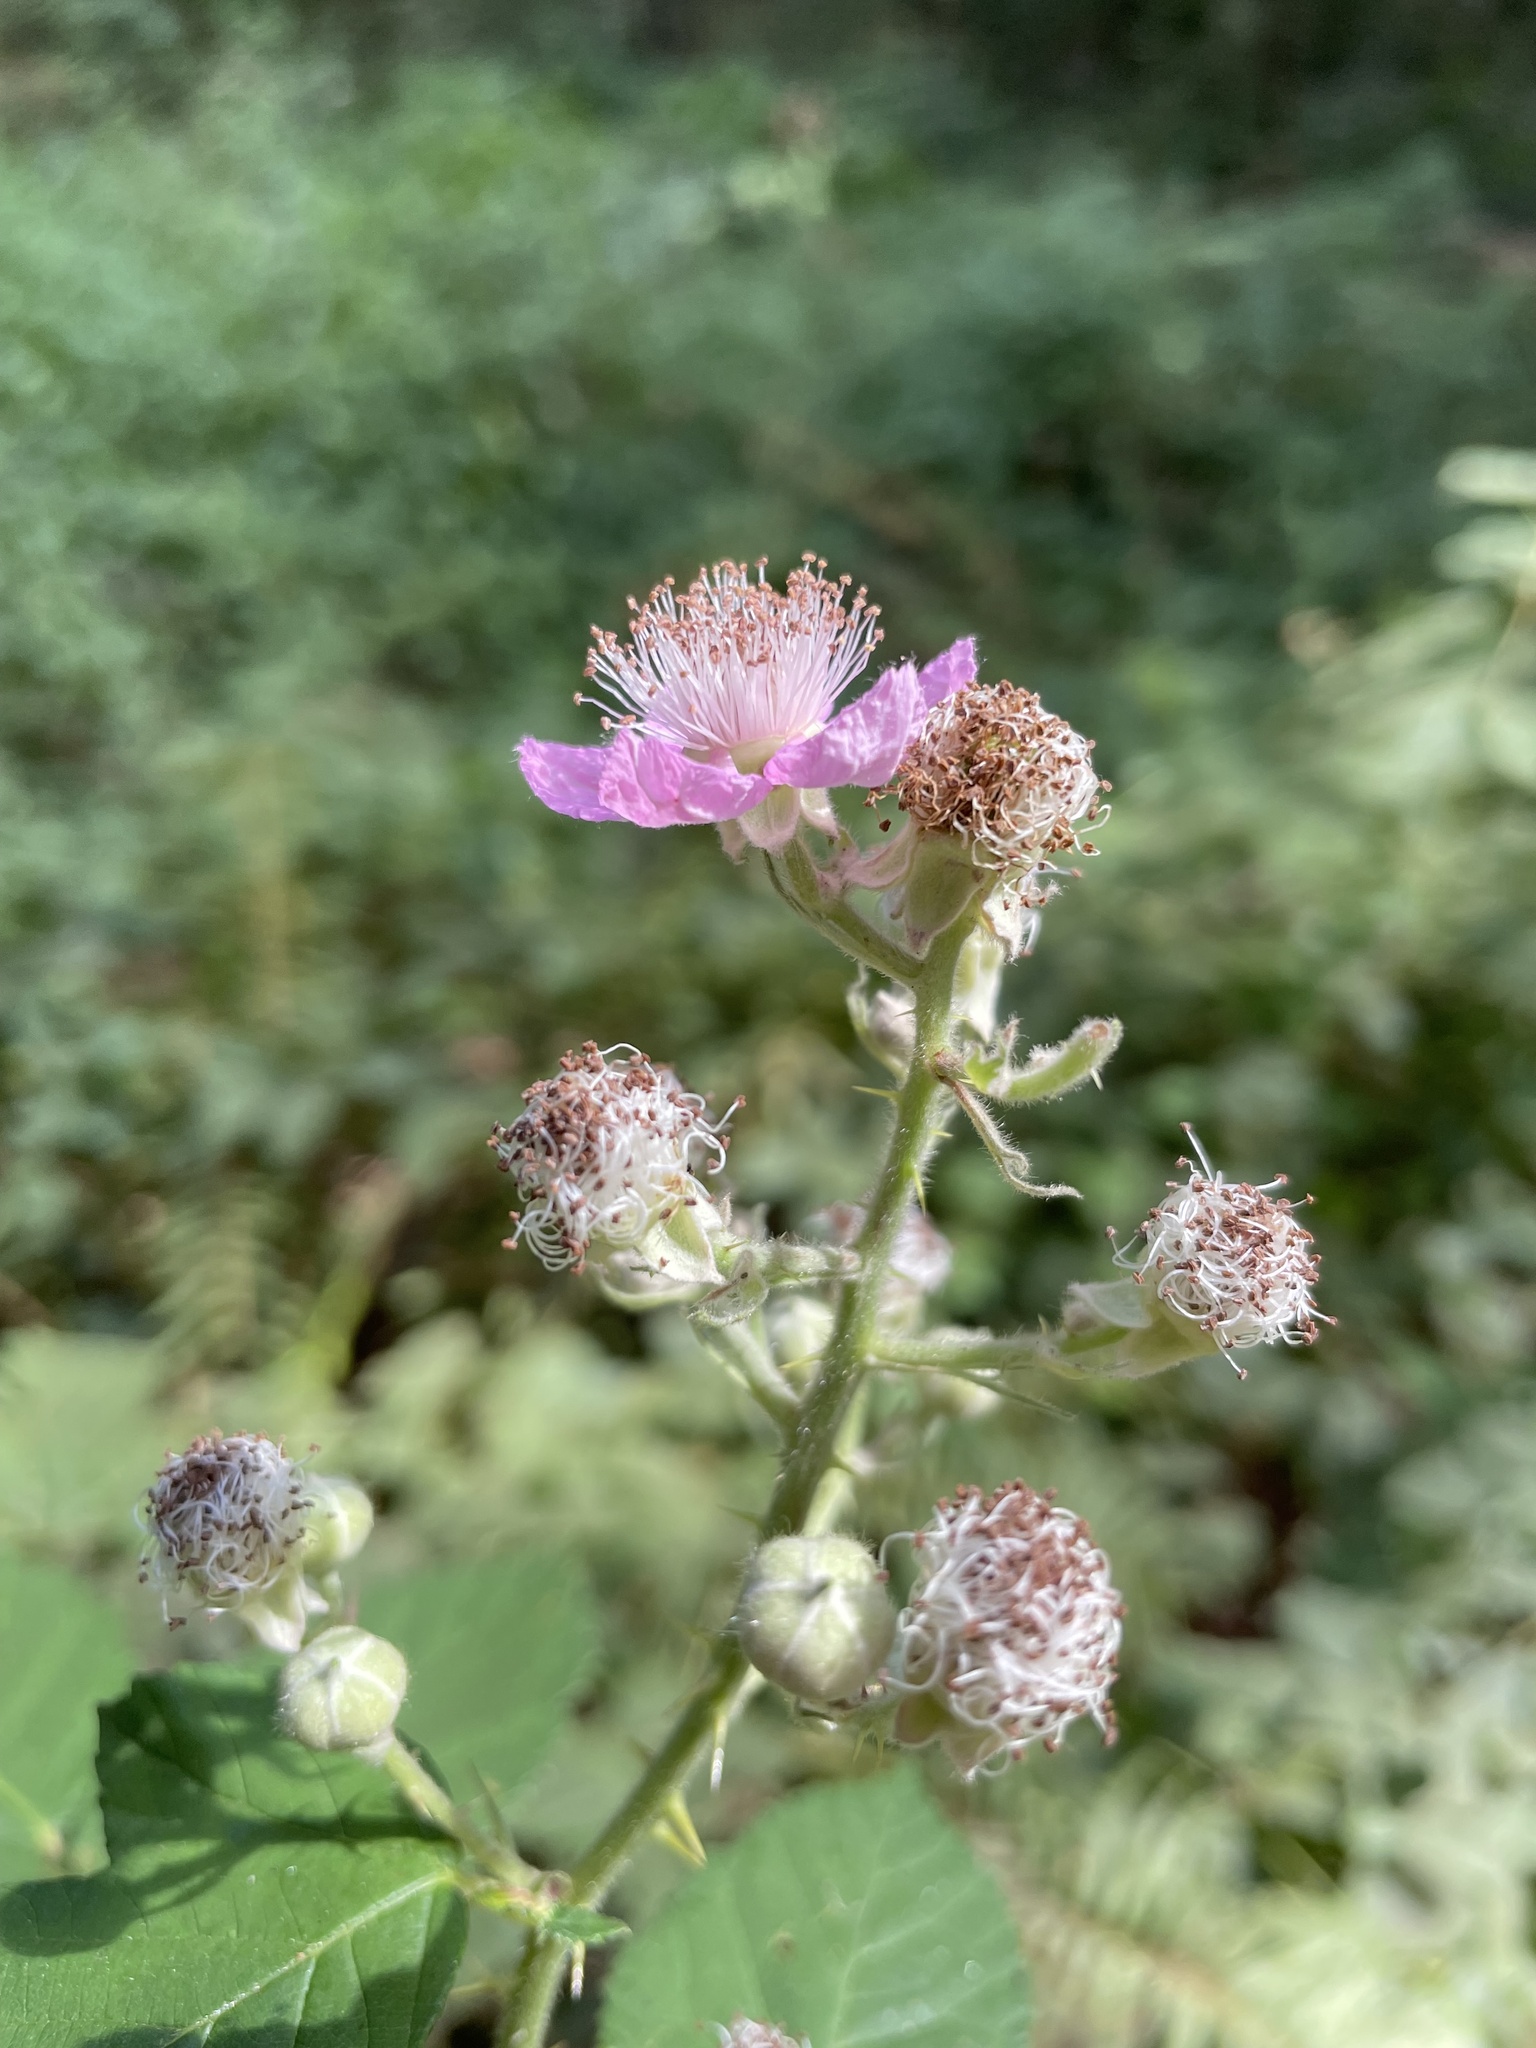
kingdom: Plantae
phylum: Tracheophyta
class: Magnoliopsida
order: Rosales
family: Rosaceae
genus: Rubus
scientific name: Rubus bifrons
